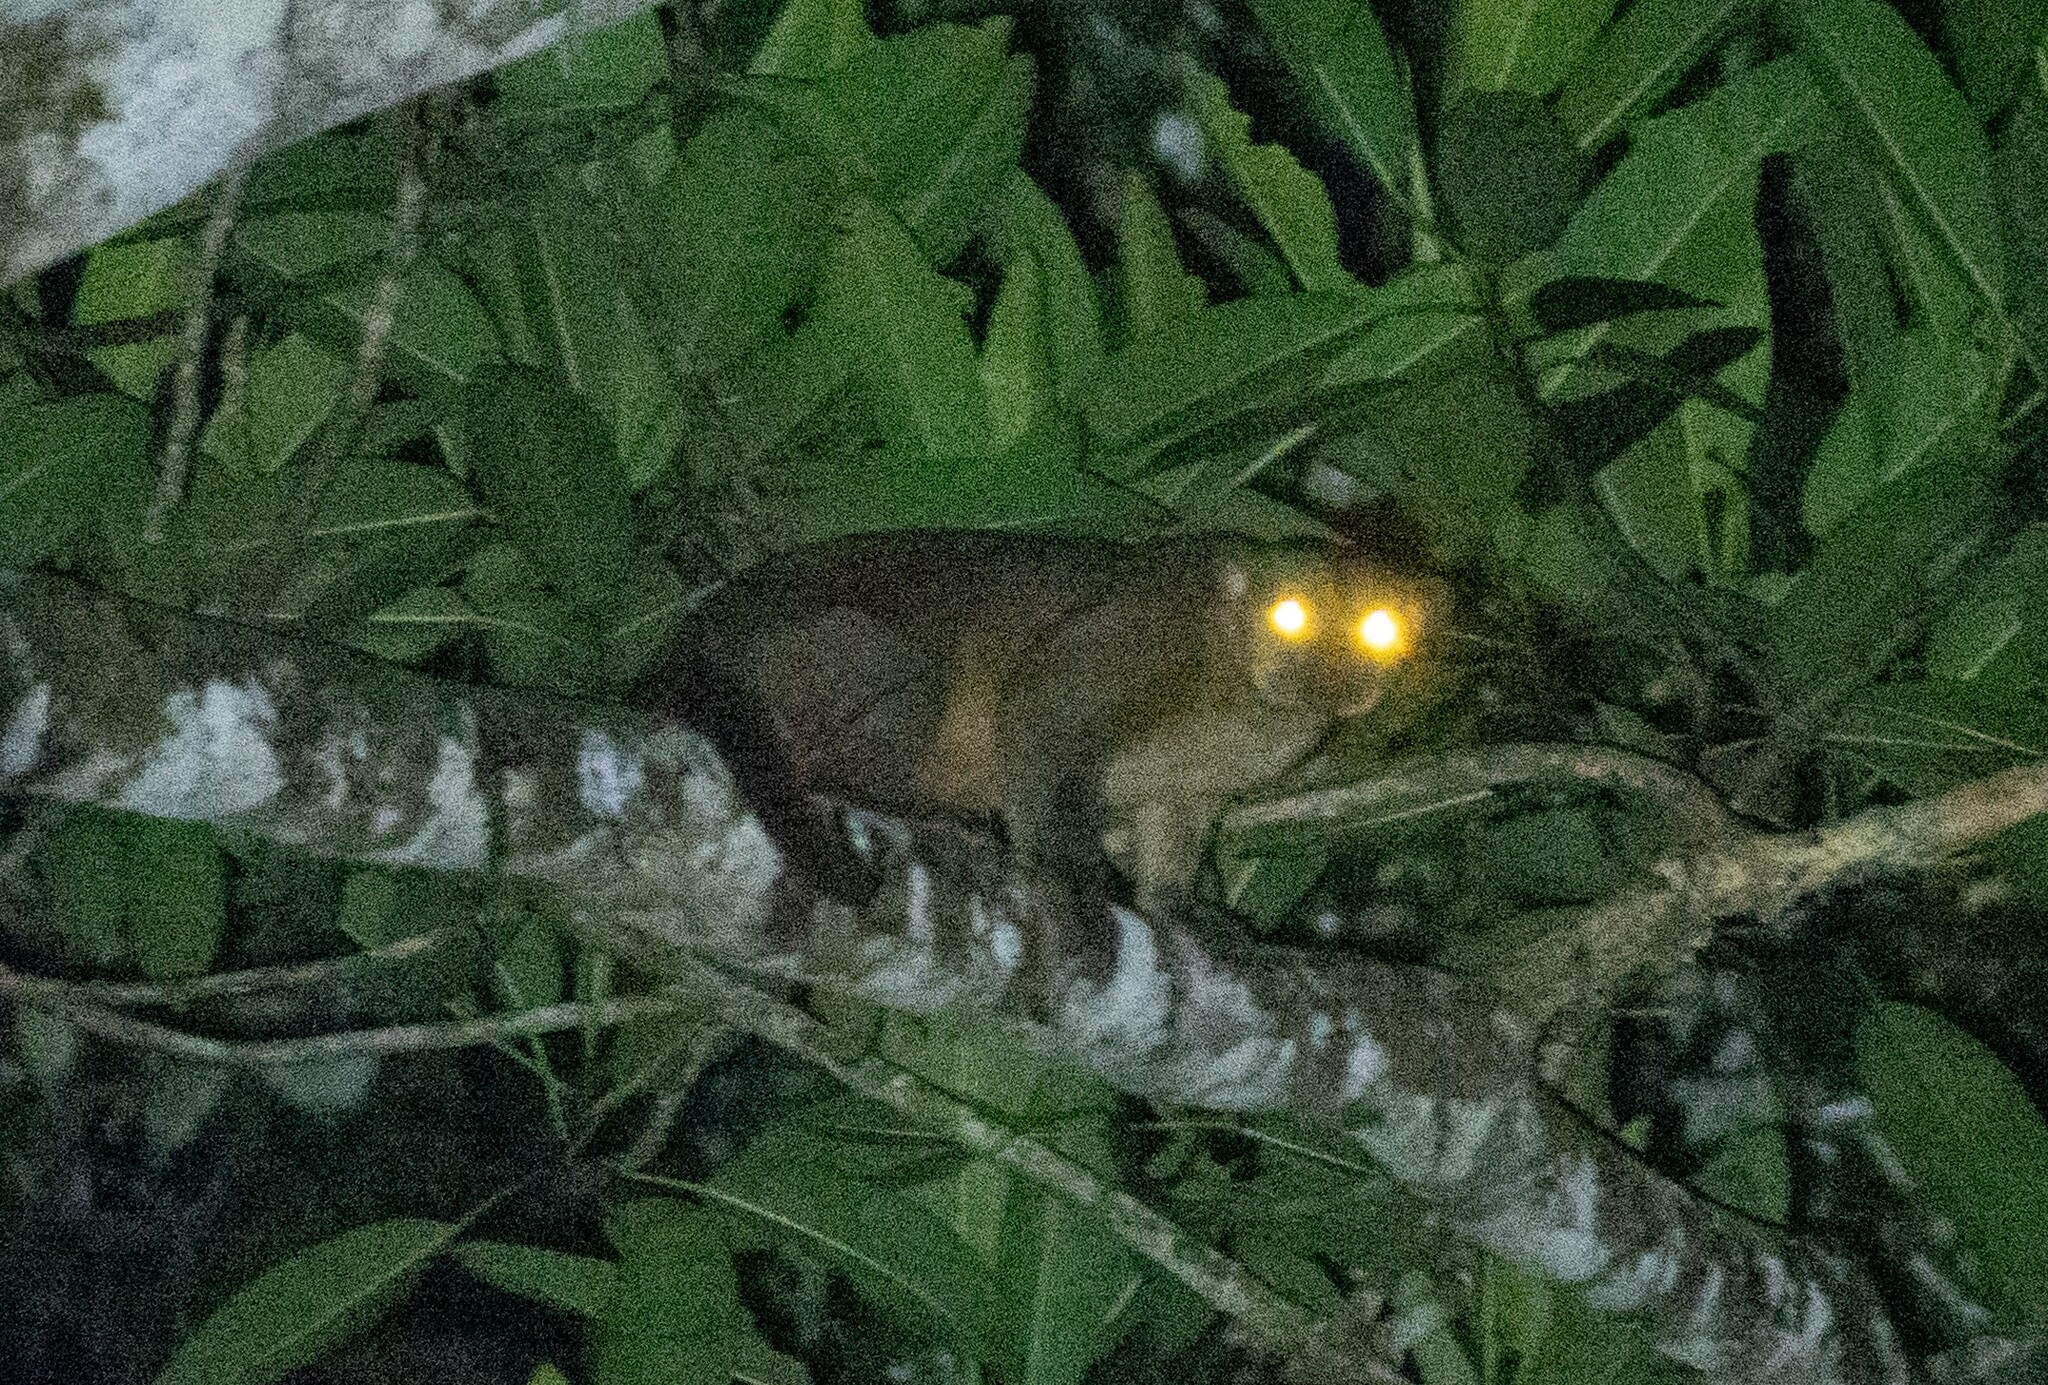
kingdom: Animalia
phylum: Chordata
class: Mammalia
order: Carnivora
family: Procyonidae
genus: Potos
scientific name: Potos flavus
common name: Kinkajou
